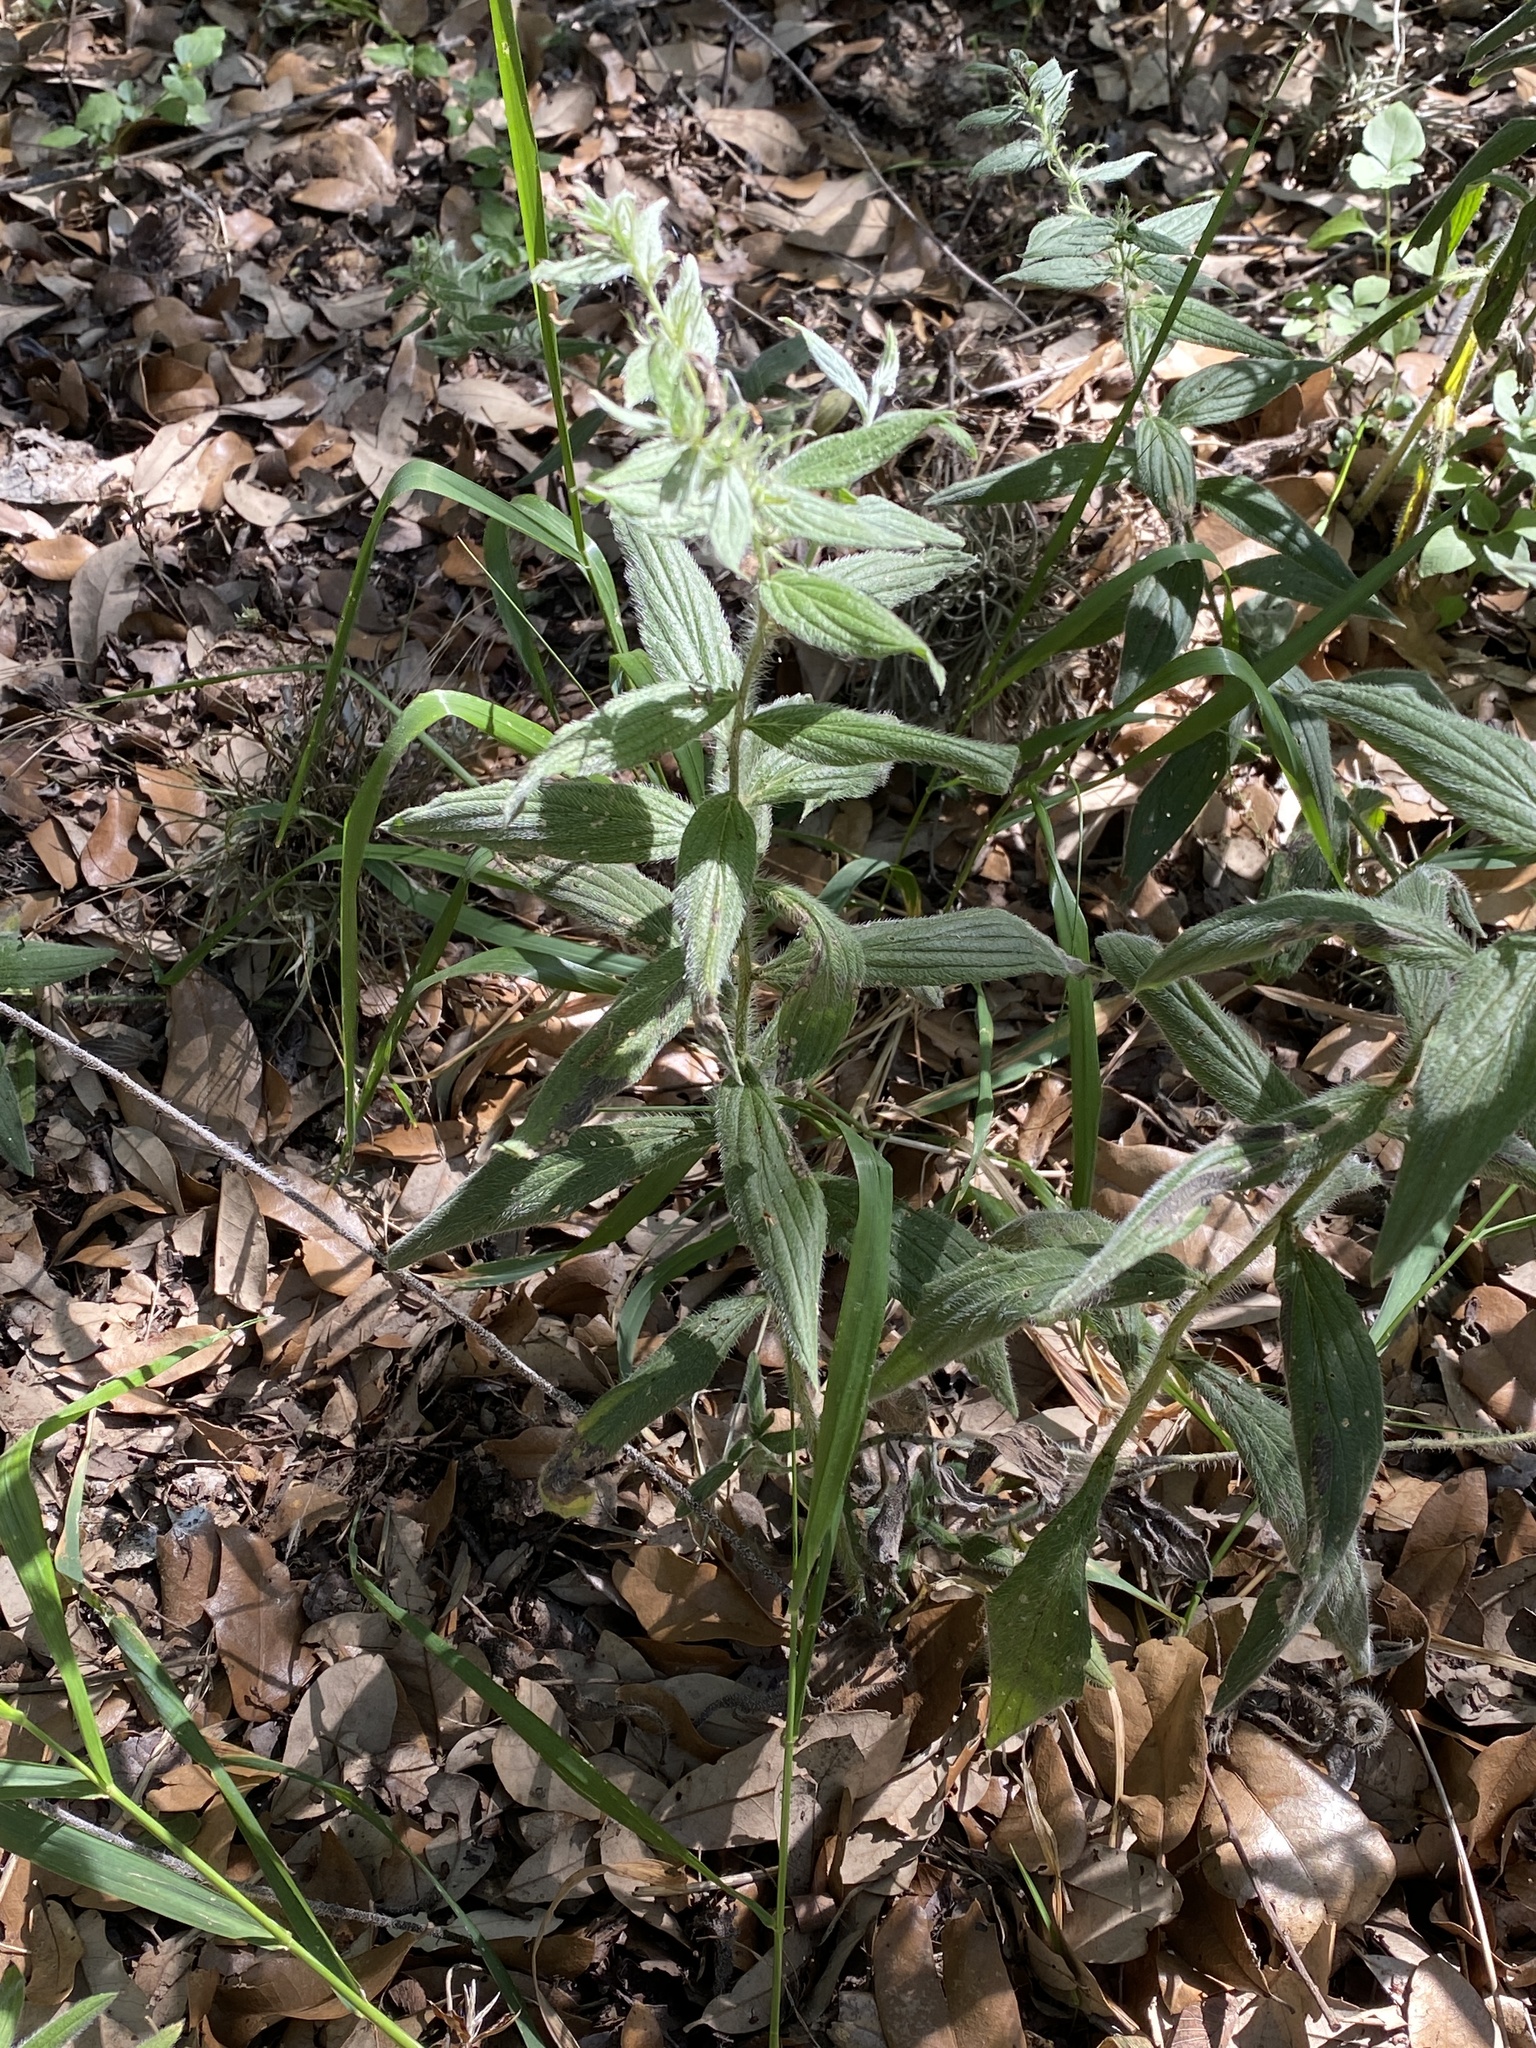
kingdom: Plantae
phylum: Tracheophyta
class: Magnoliopsida
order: Boraginales
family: Boraginaceae
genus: Lithospermum
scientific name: Lithospermum caroliniense
